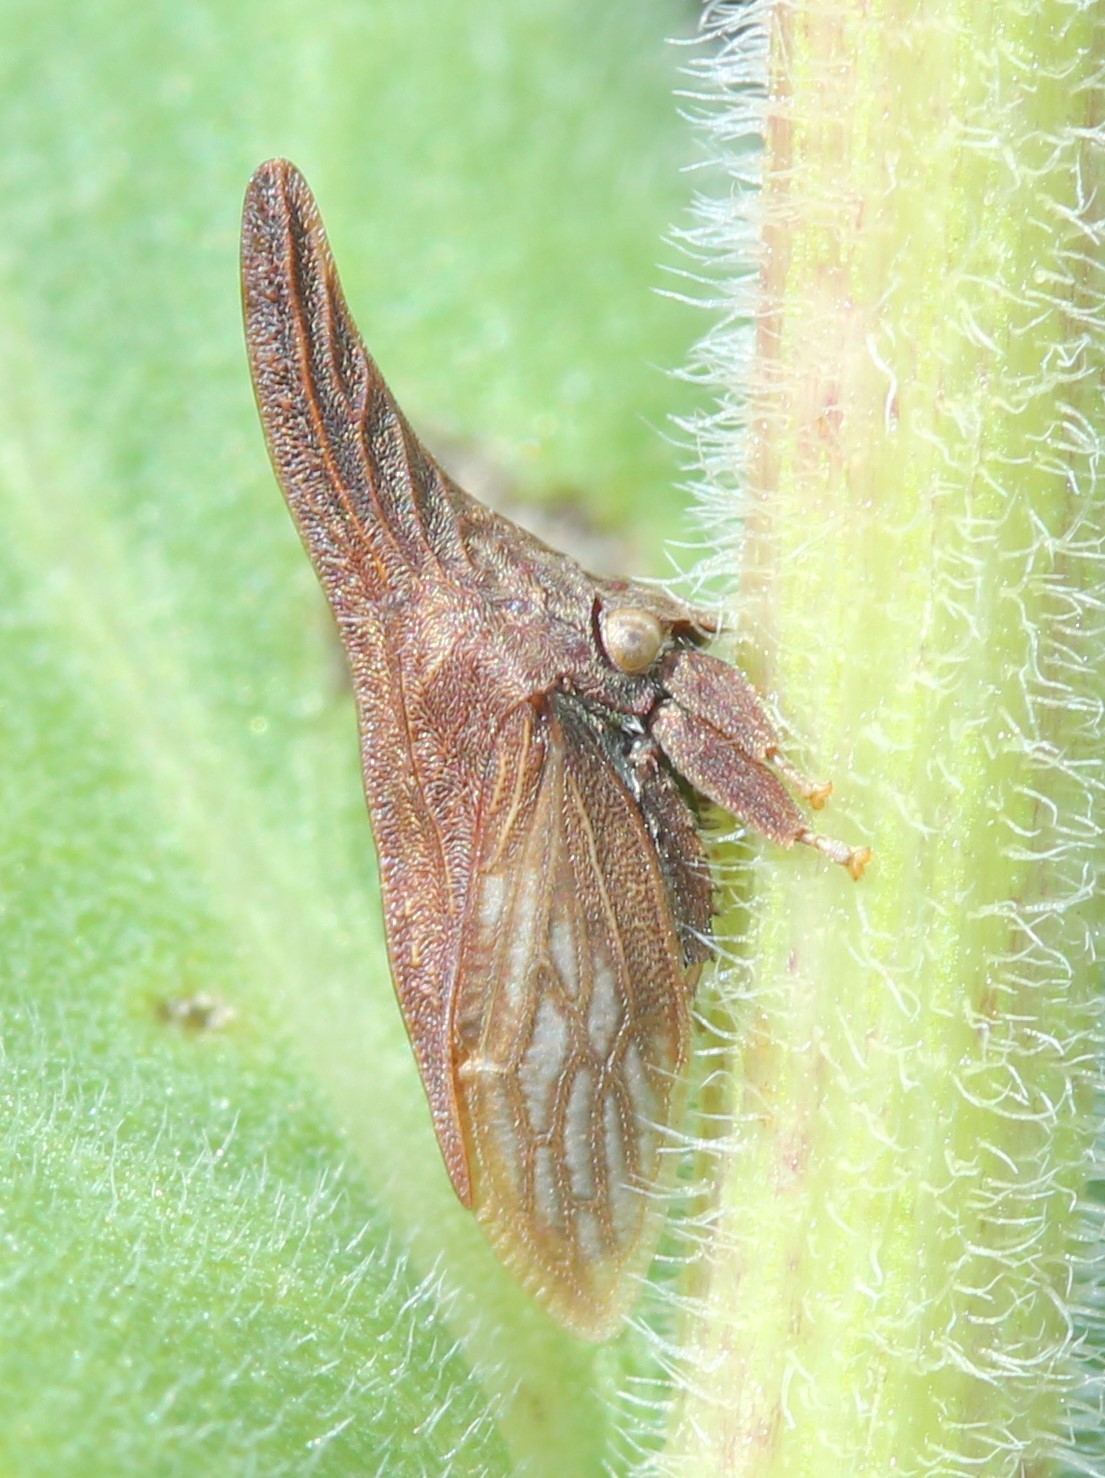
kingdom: Animalia
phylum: Arthropoda
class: Insecta
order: Hemiptera
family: Membracidae
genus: Enchenopa
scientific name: Enchenopa latipes
